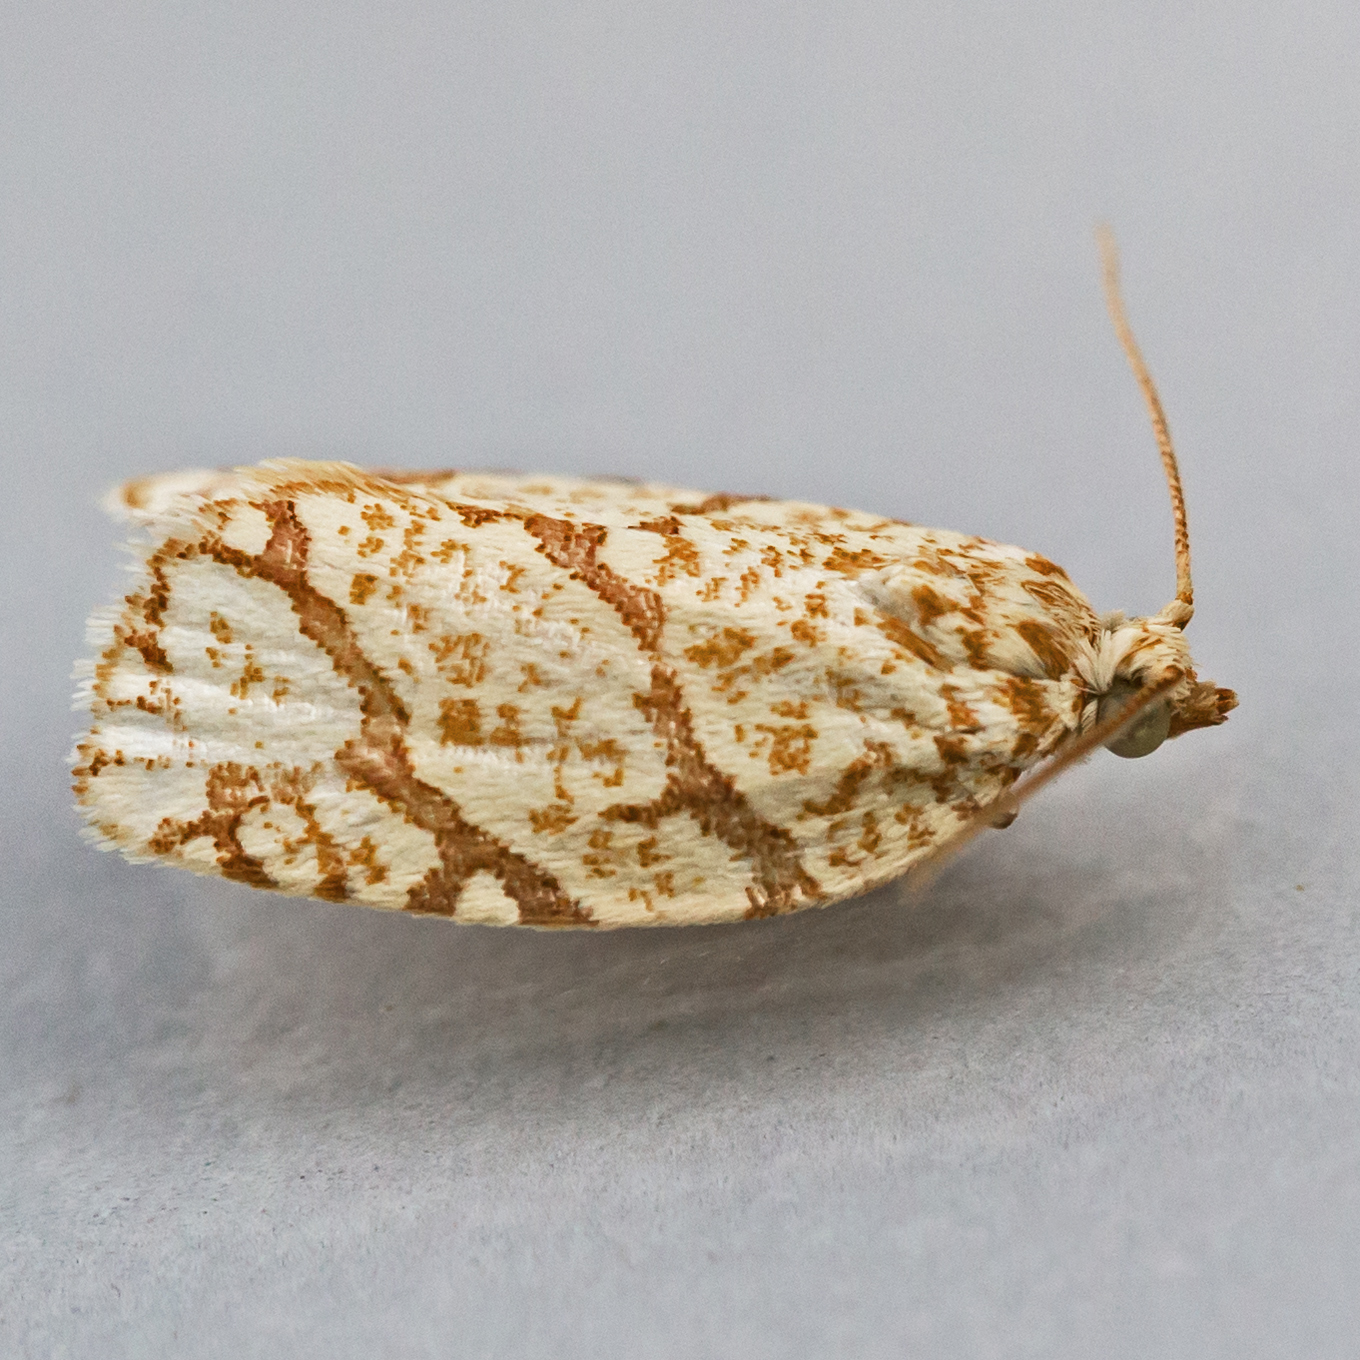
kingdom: Animalia
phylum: Arthropoda
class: Insecta
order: Lepidoptera
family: Tortricidae
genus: Argyrotaenia
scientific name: Argyrotaenia quercifoliana
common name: Yellow-winged oak leafroller moth
